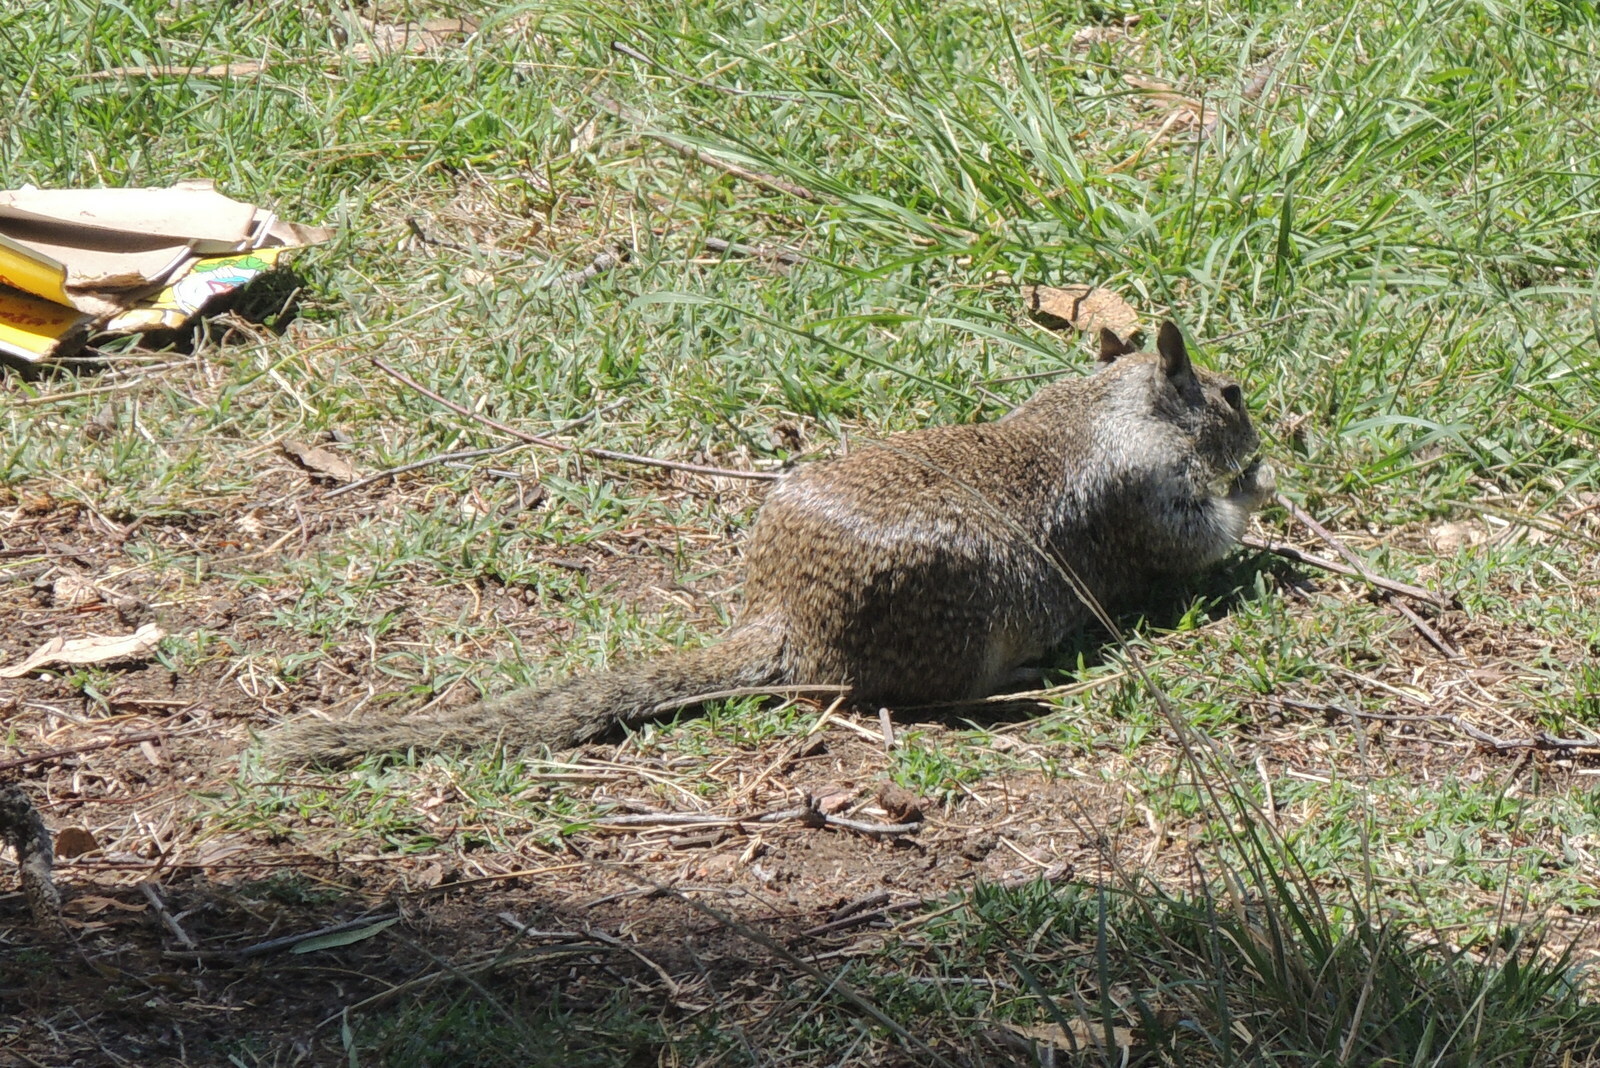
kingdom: Animalia
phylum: Chordata
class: Mammalia
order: Rodentia
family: Sciuridae
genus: Otospermophilus
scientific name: Otospermophilus beecheyi
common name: California ground squirrel
